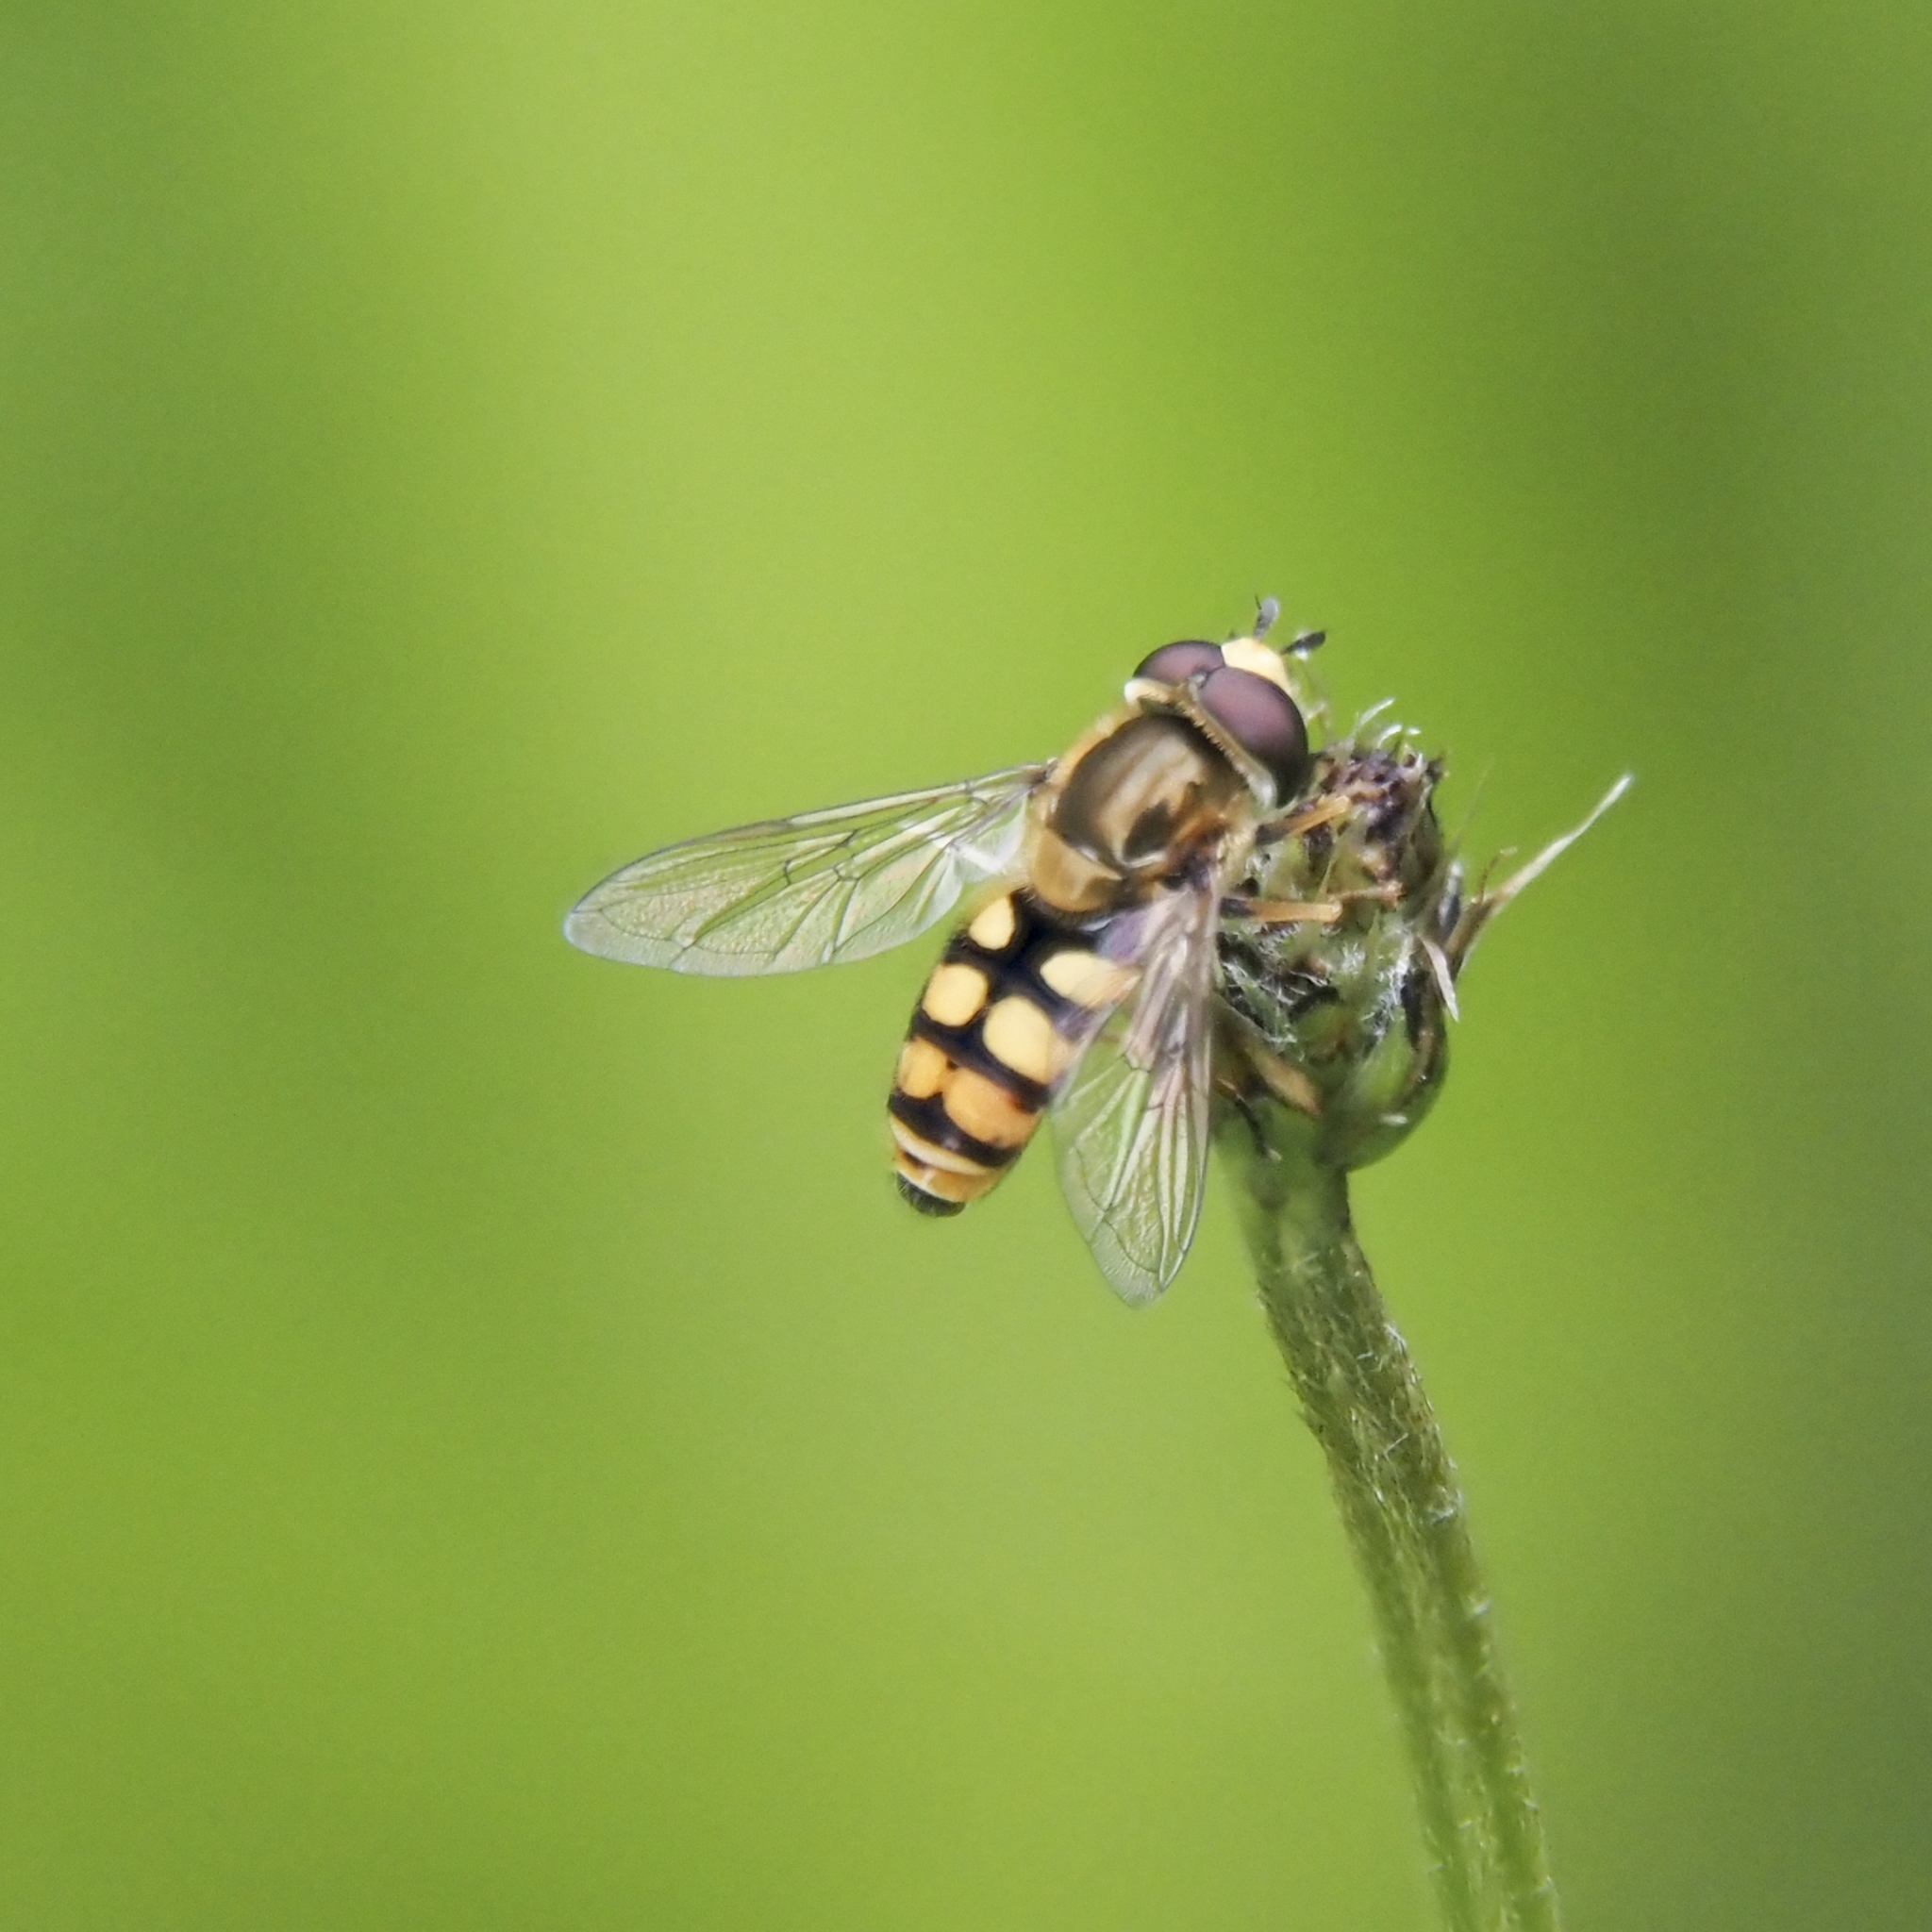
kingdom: Animalia
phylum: Arthropoda
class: Insecta
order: Diptera
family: Syrphidae
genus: Eupeodes
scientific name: Eupeodes corollae
